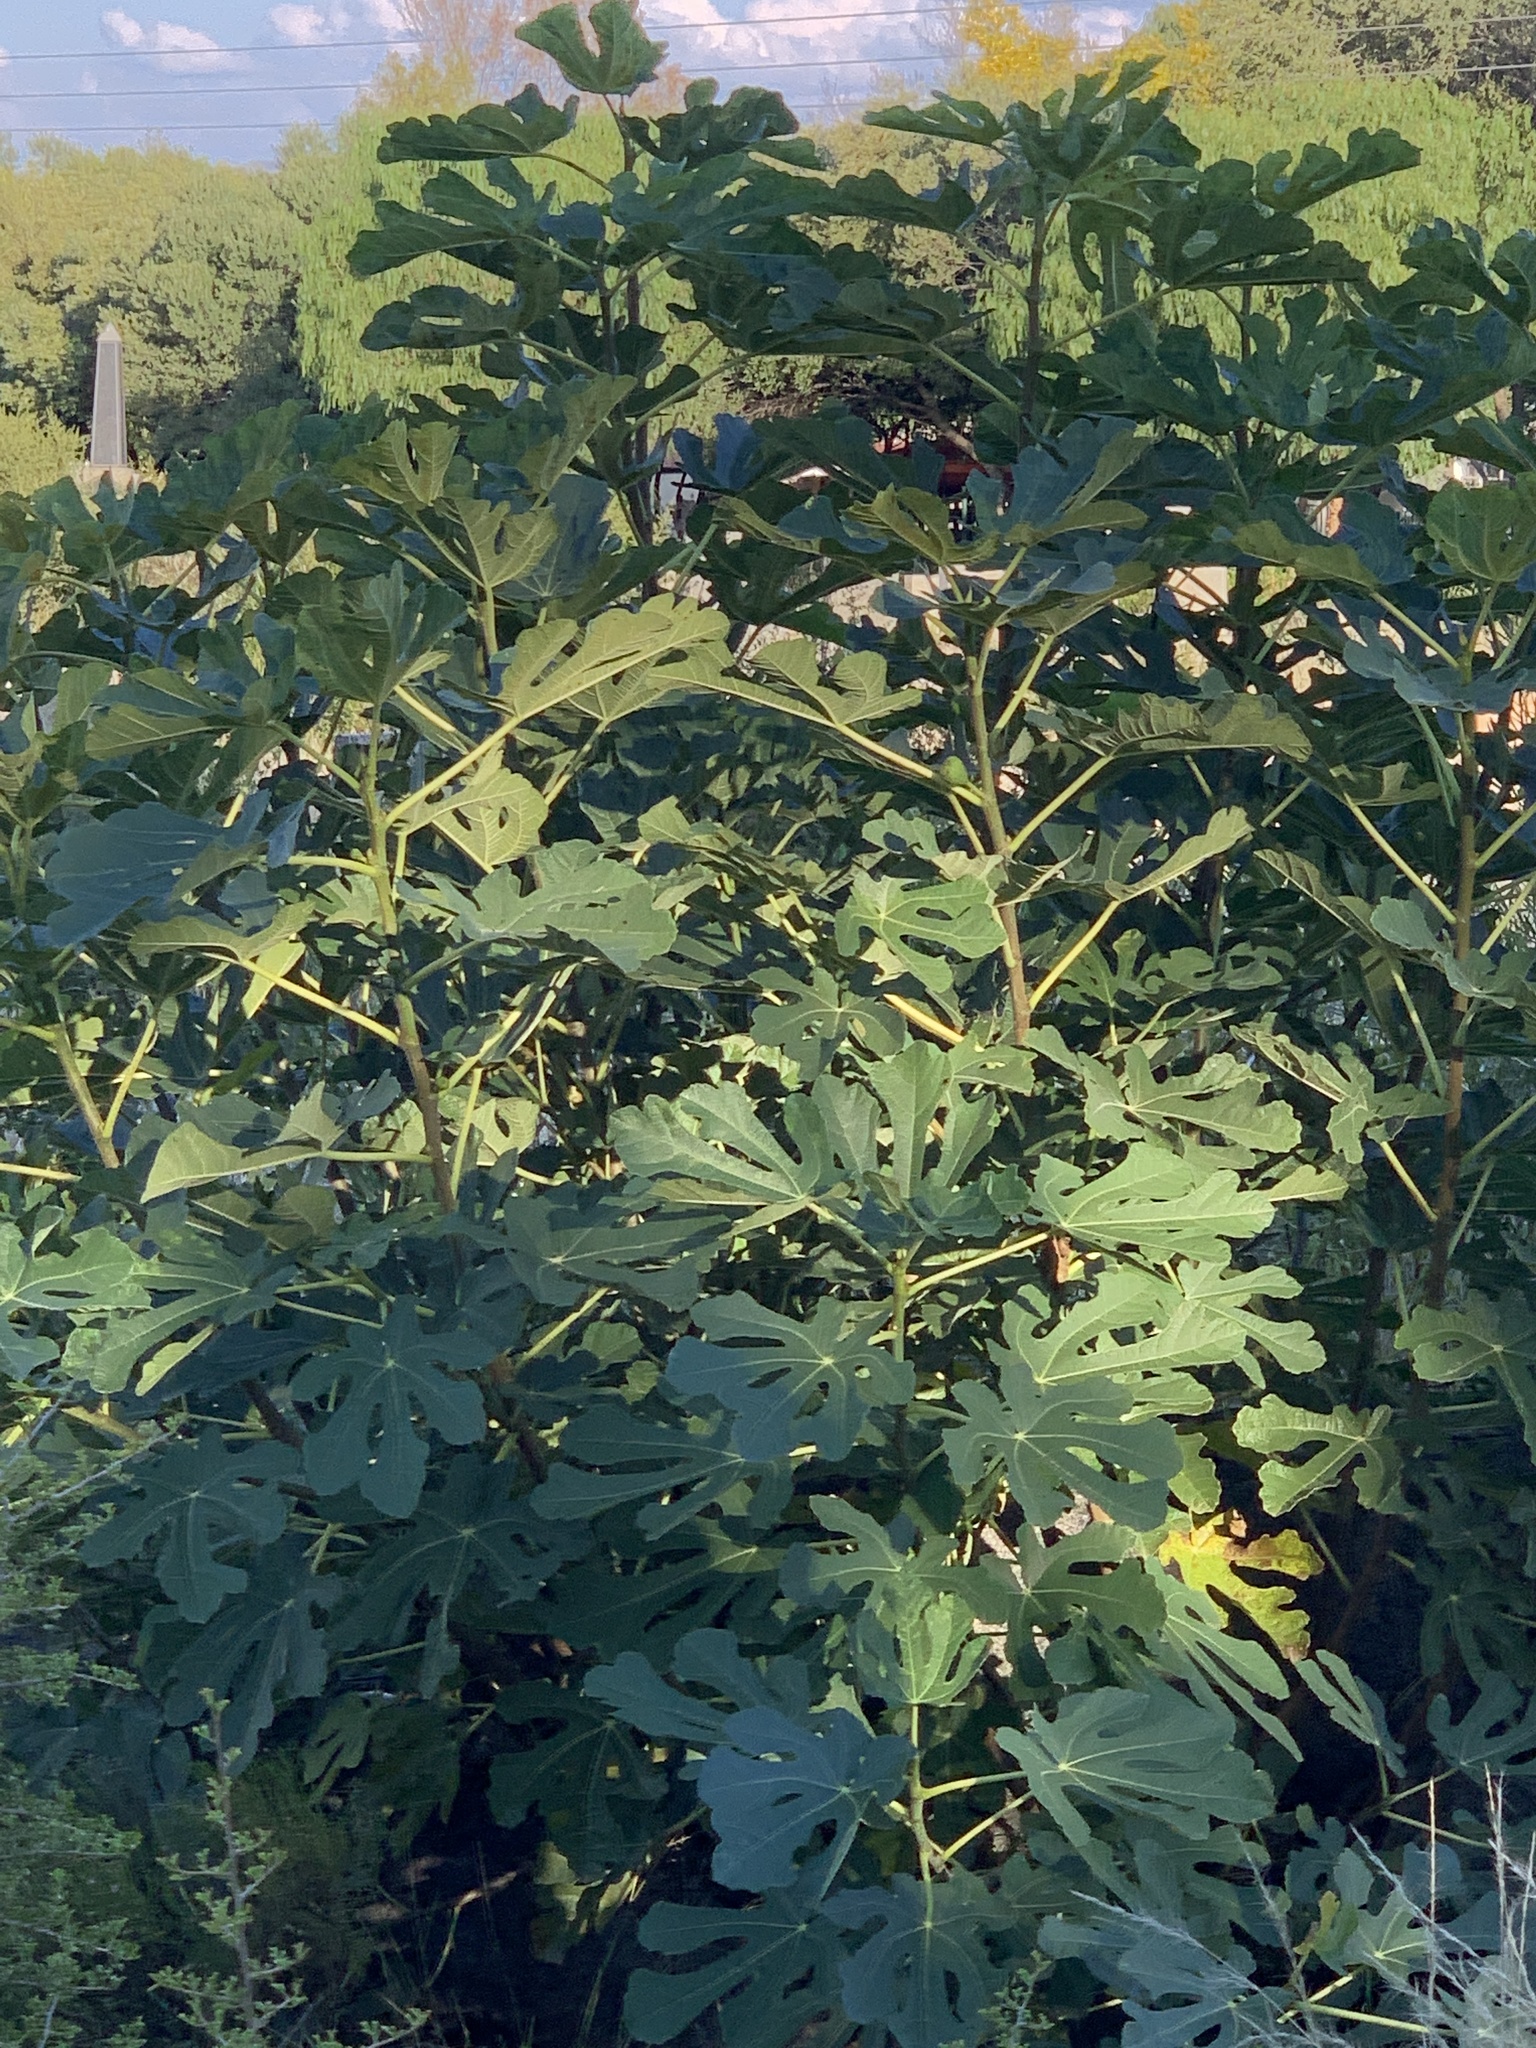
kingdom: Plantae
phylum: Tracheophyta
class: Magnoliopsida
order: Rosales
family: Moraceae
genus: Ficus
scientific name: Ficus carica
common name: Fig
